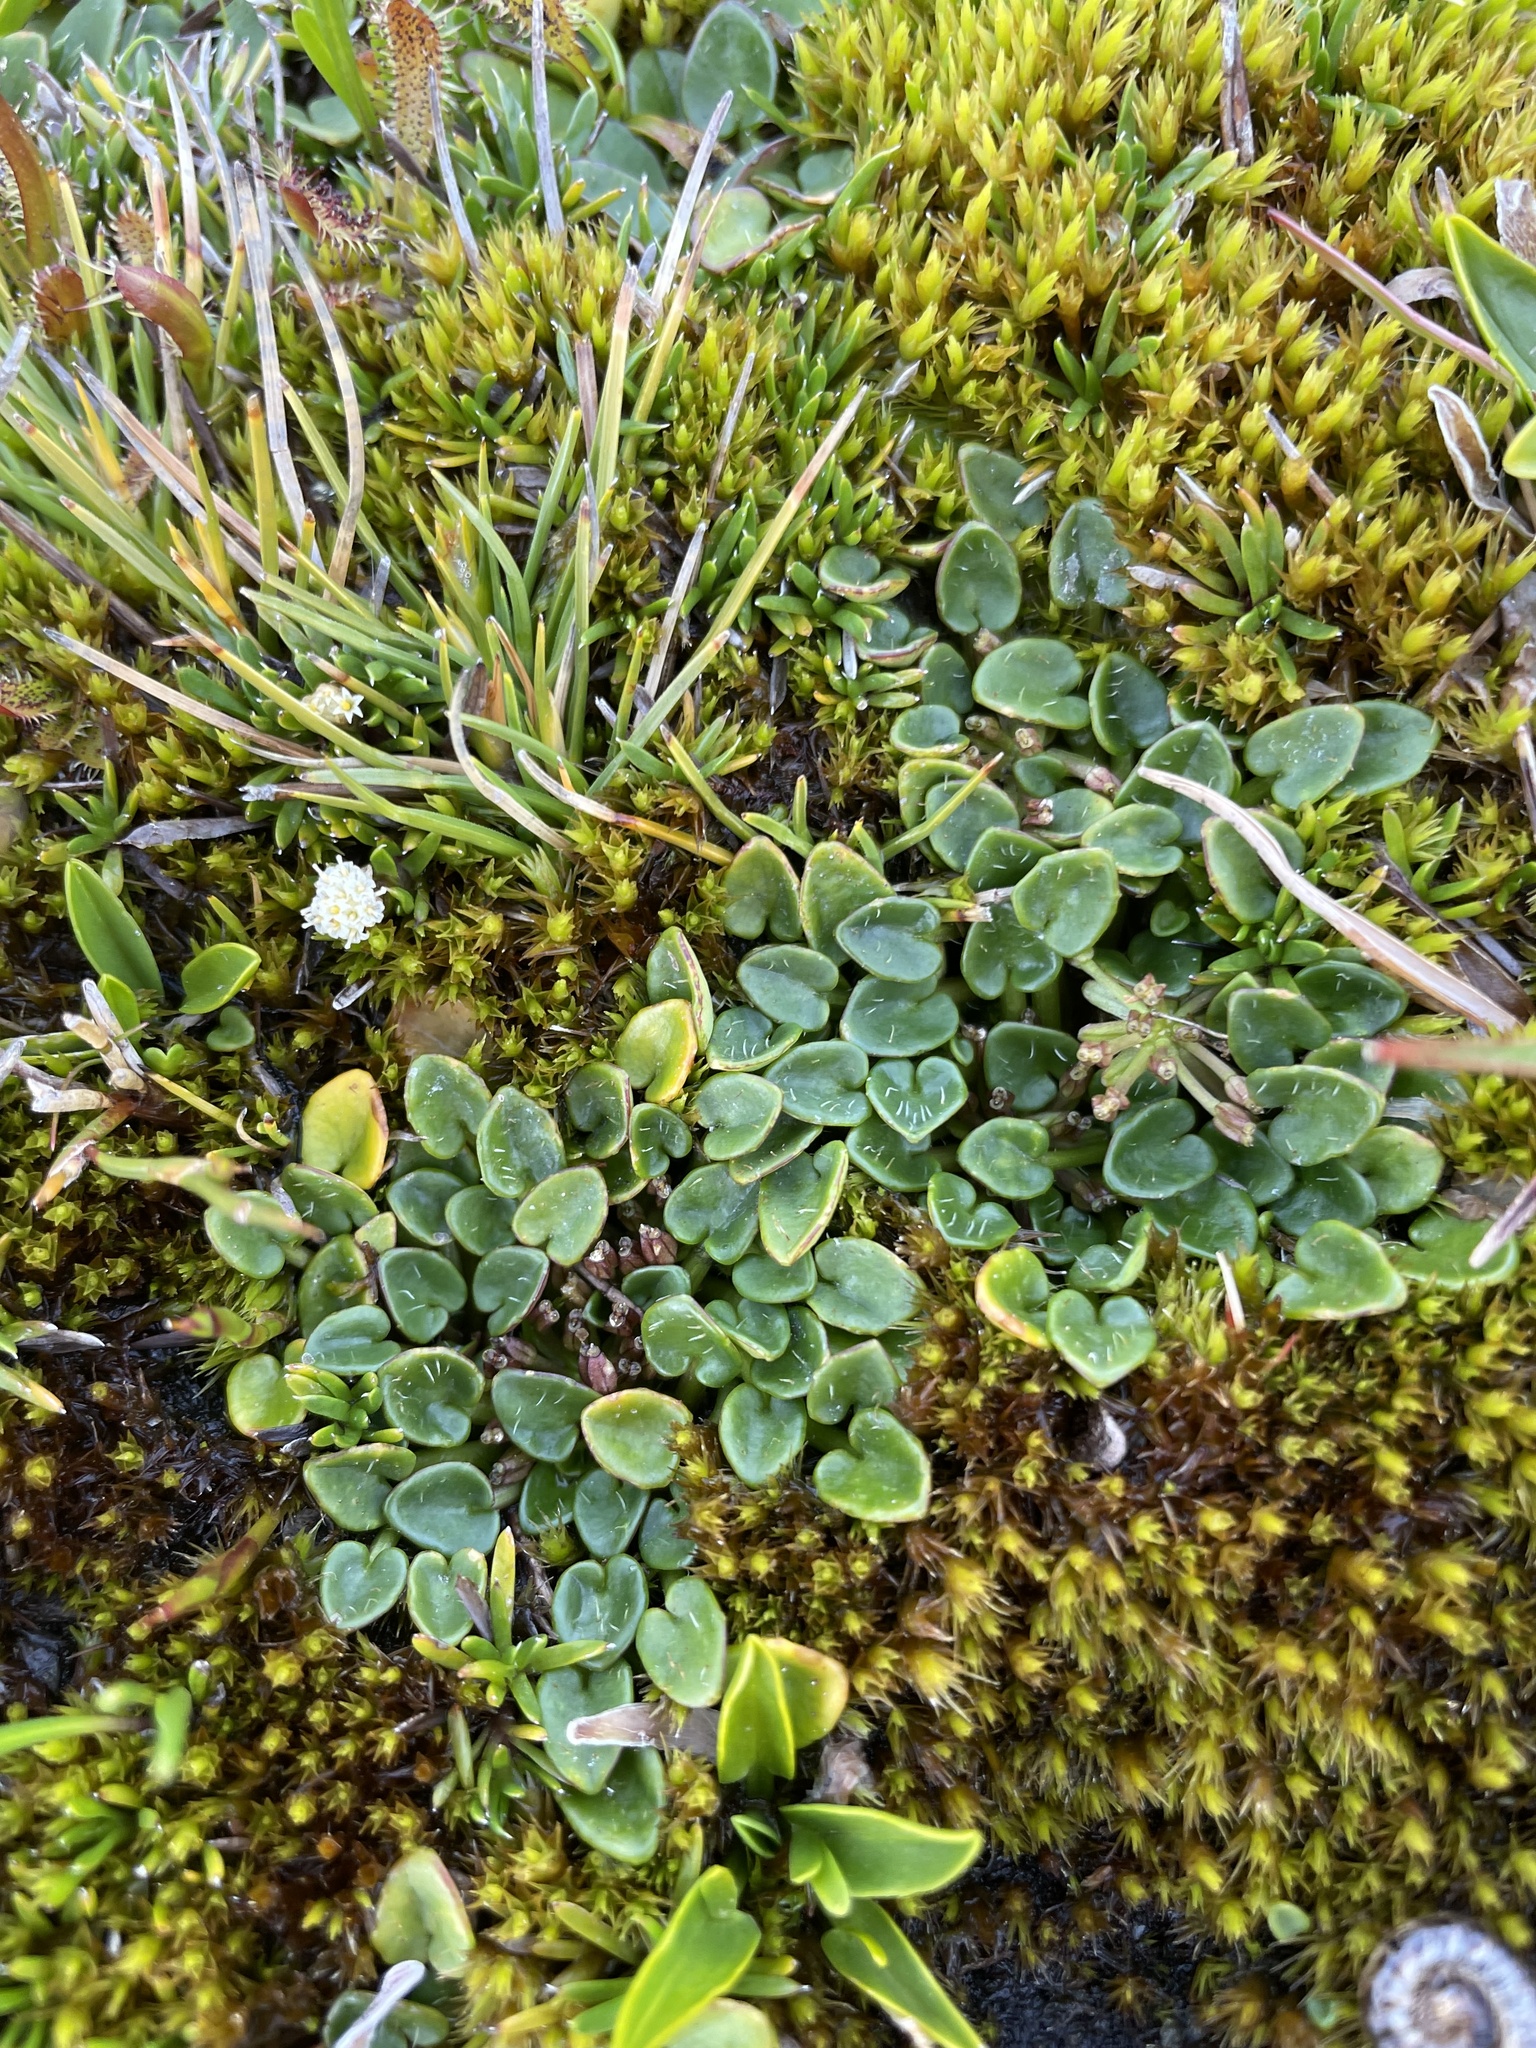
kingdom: Plantae
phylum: Tracheophyta
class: Magnoliopsida
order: Apiales
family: Apiaceae
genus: Diplaspis
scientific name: Diplaspis nivis
